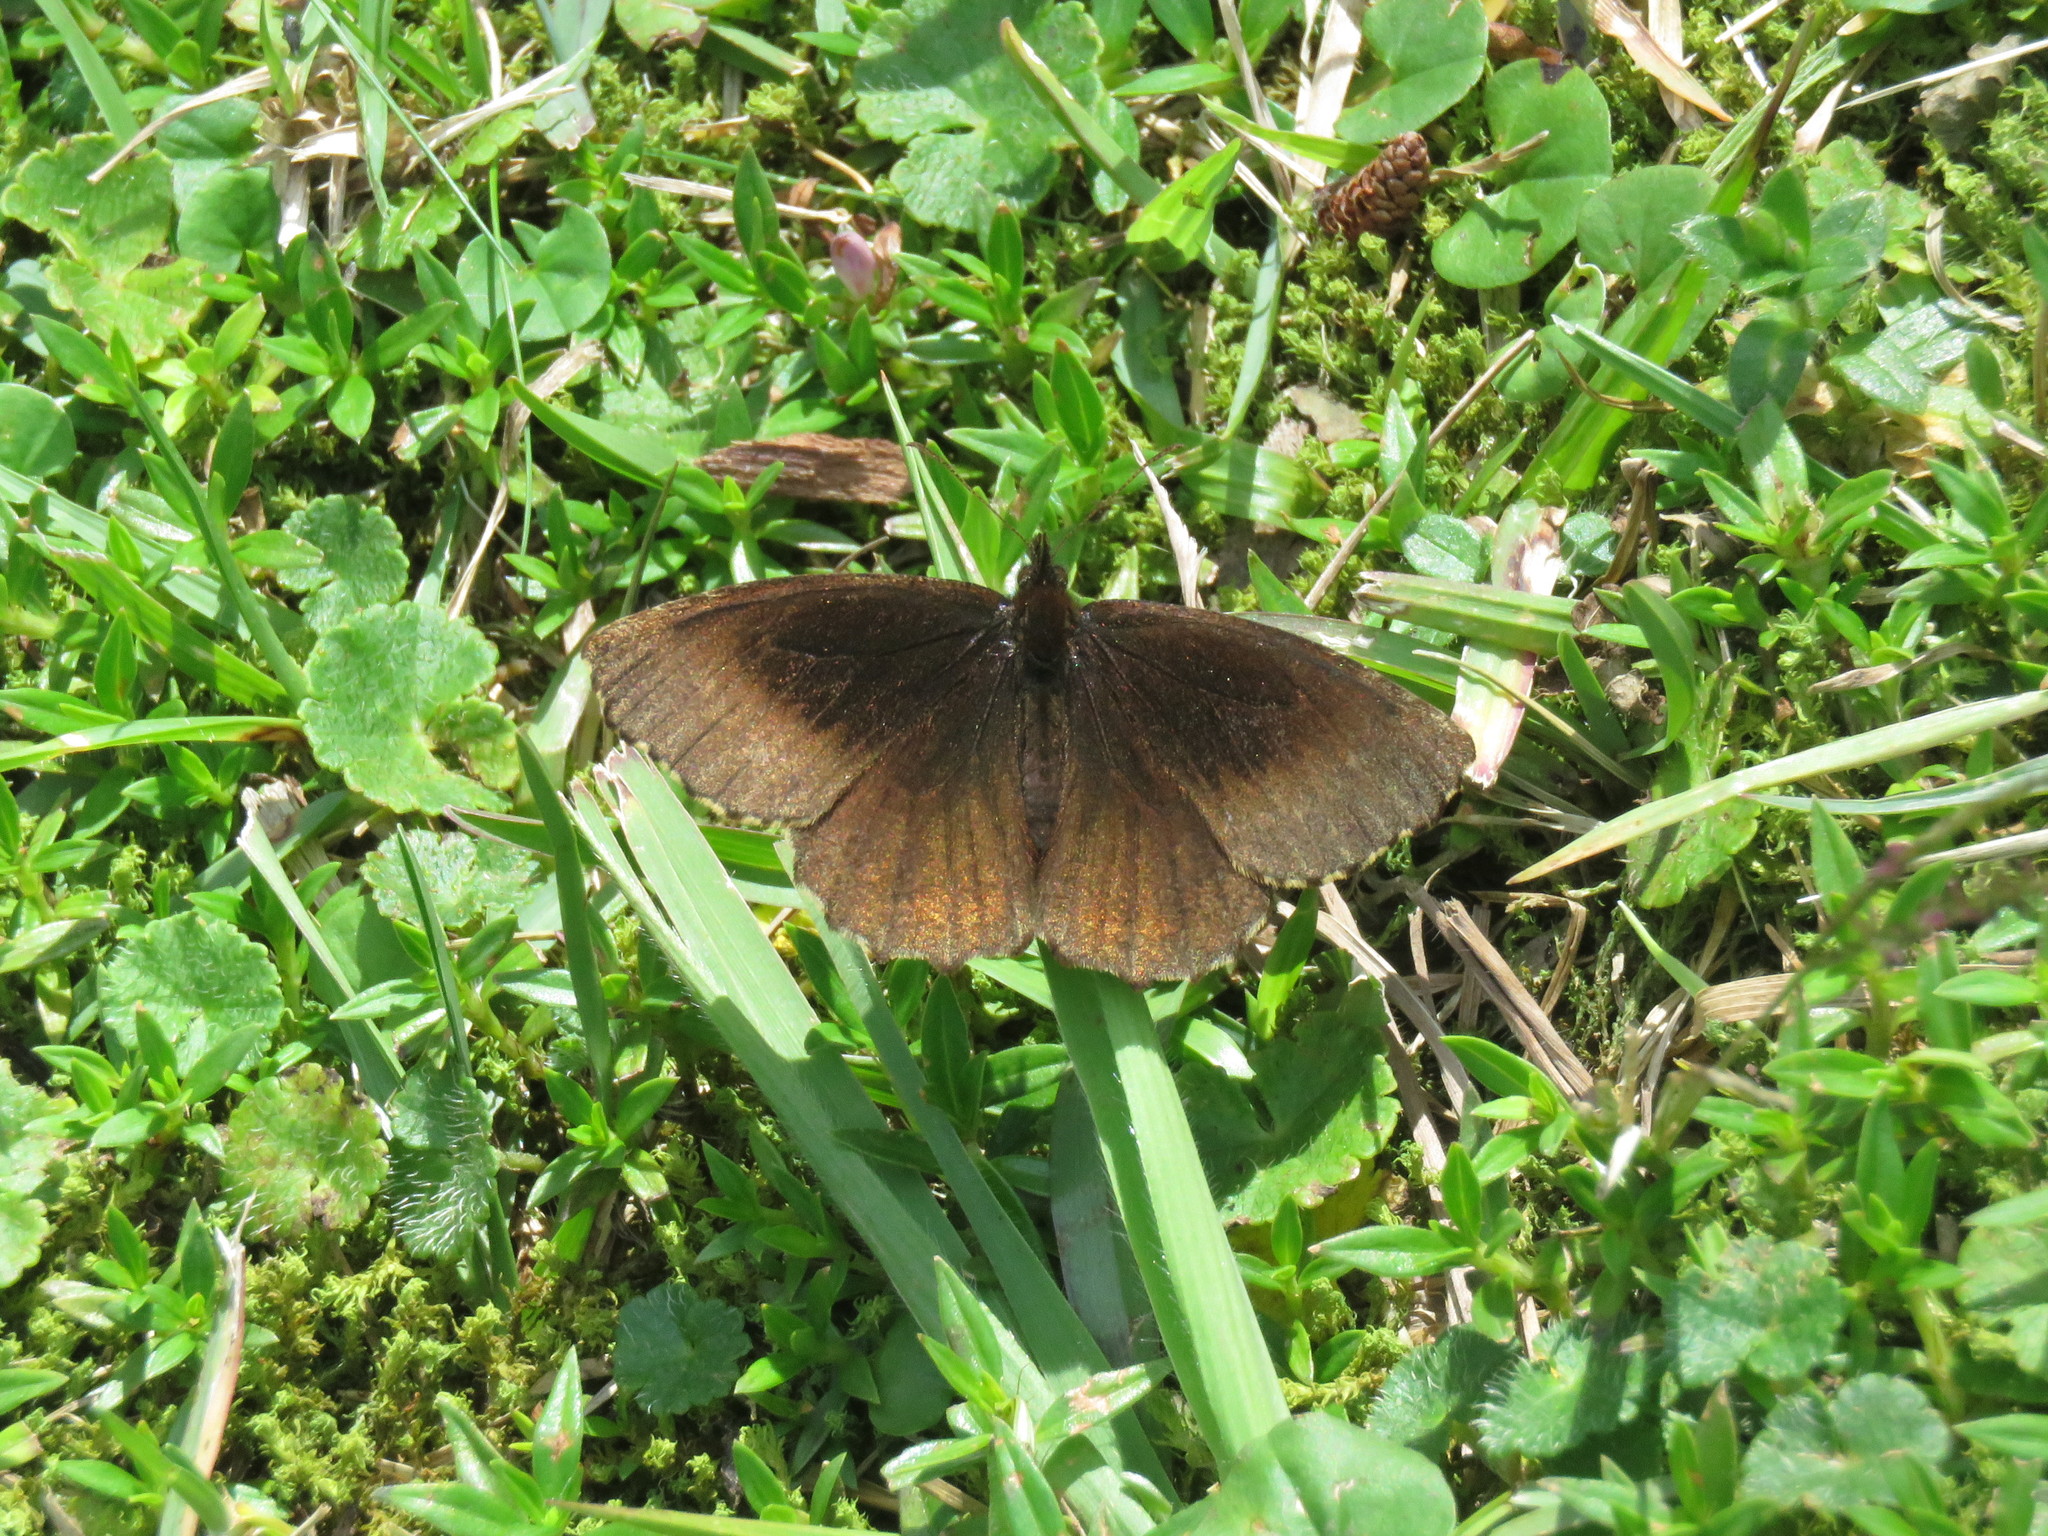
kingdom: Animalia
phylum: Arthropoda
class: Insecta
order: Lepidoptera
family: Nymphalidae
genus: Panyapedaliodes
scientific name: Panyapedaliodes drymaea
